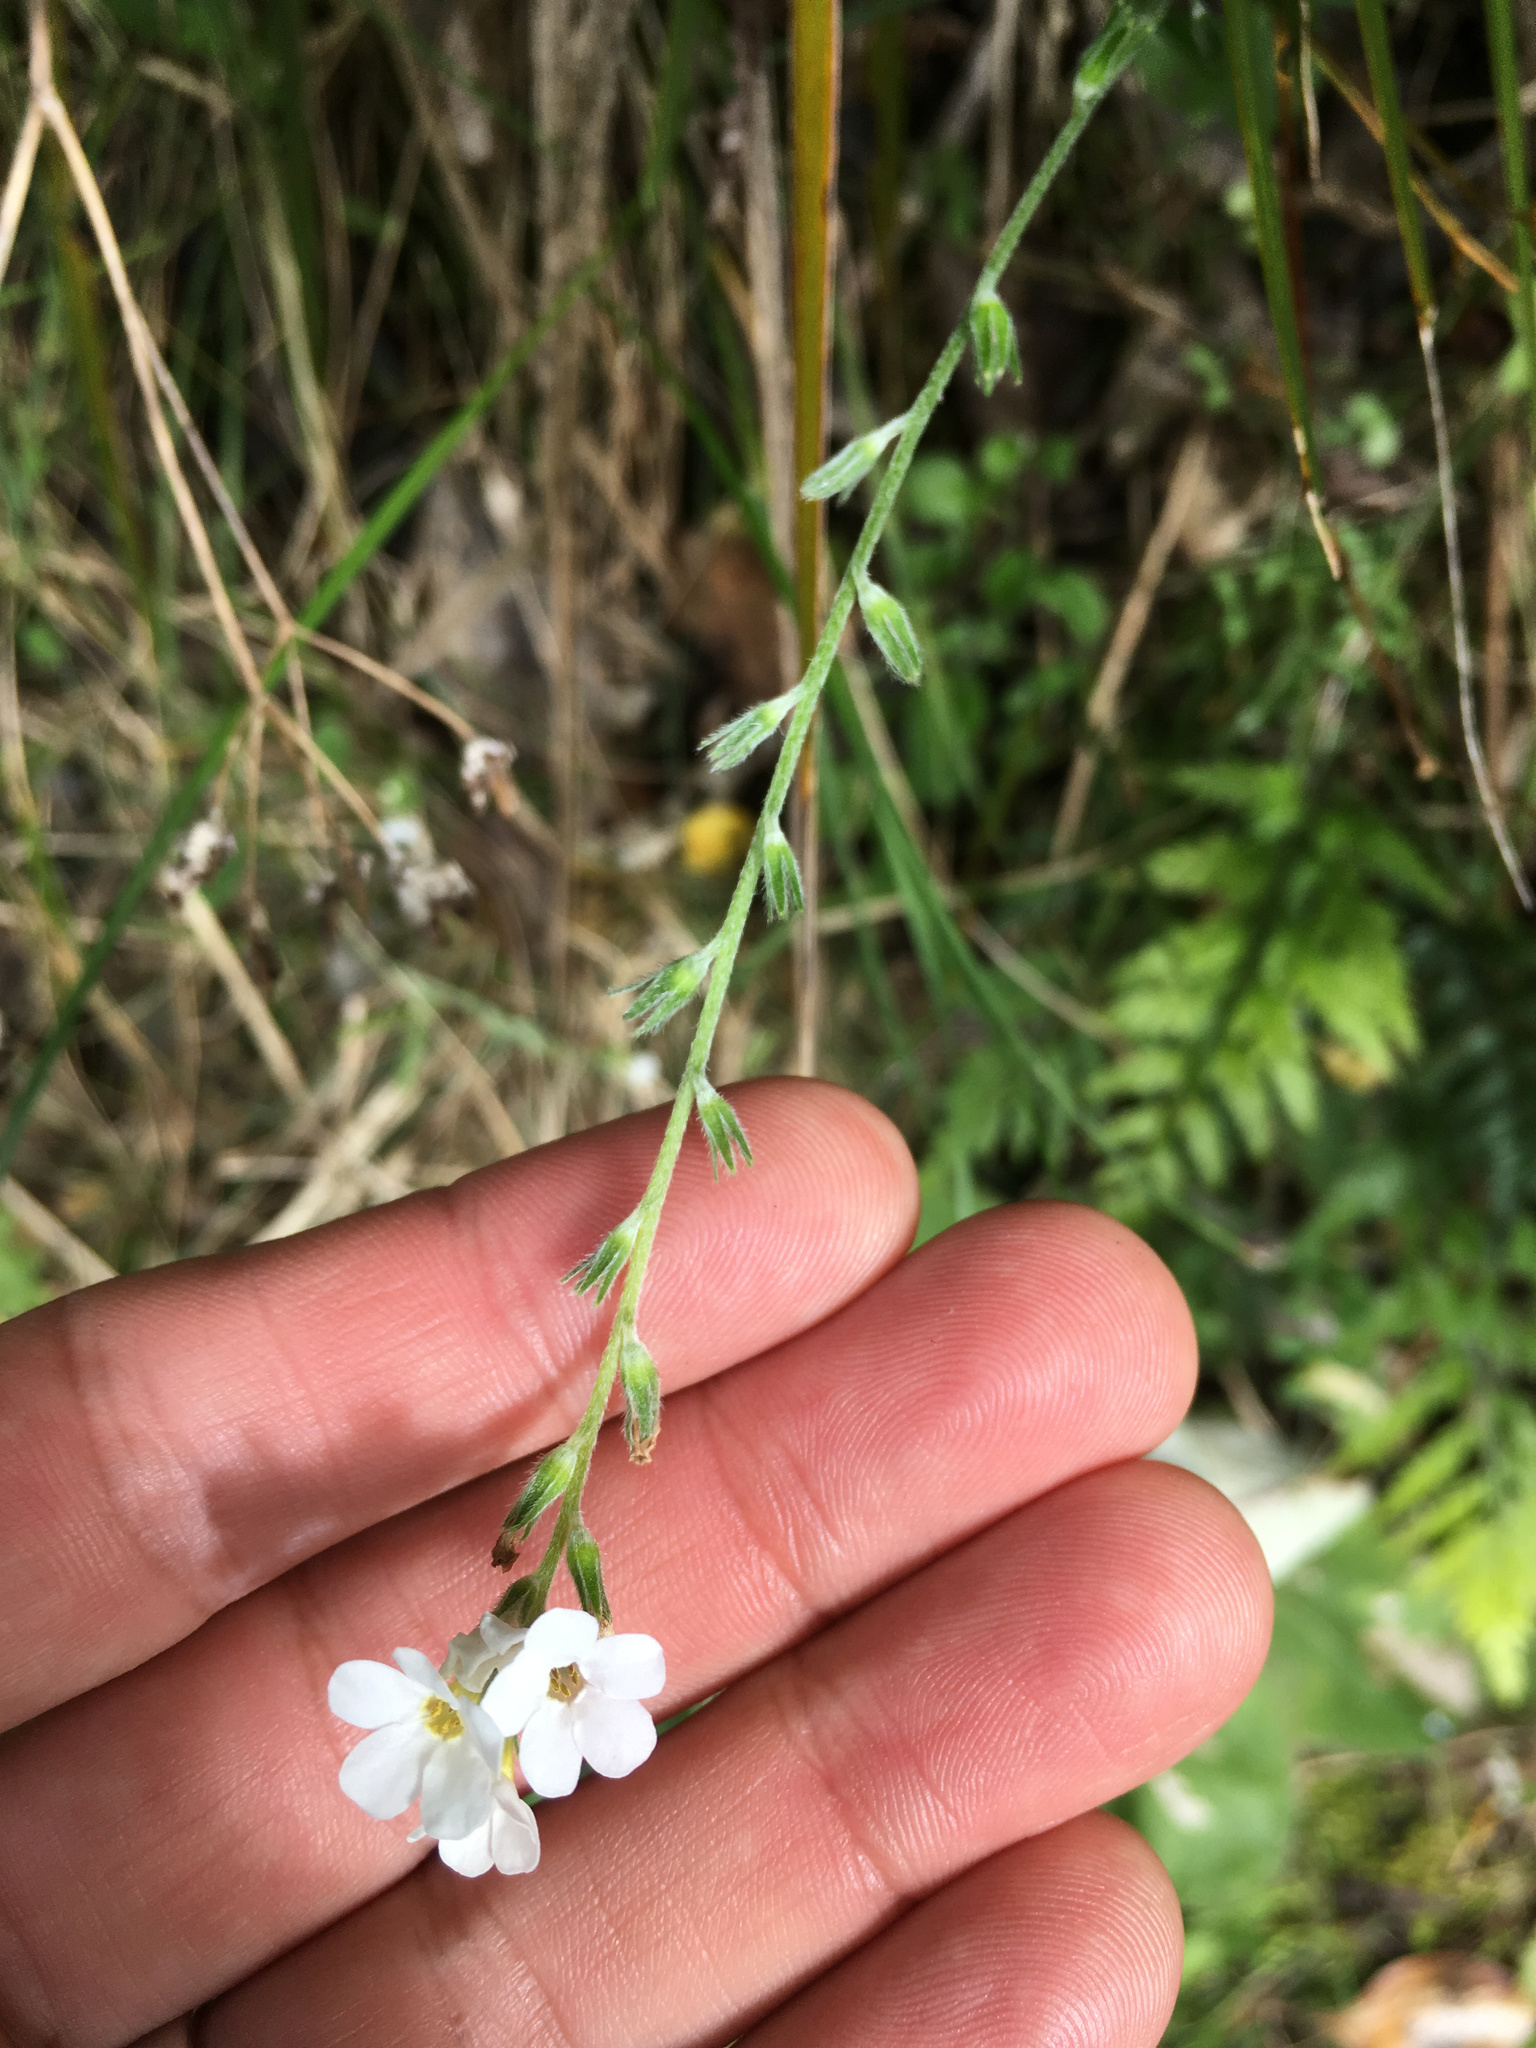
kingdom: Plantae
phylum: Tracheophyta
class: Magnoliopsida
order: Boraginales
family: Boraginaceae
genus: Myosotis
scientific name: Myosotis australis
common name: Australian forget-me-not
